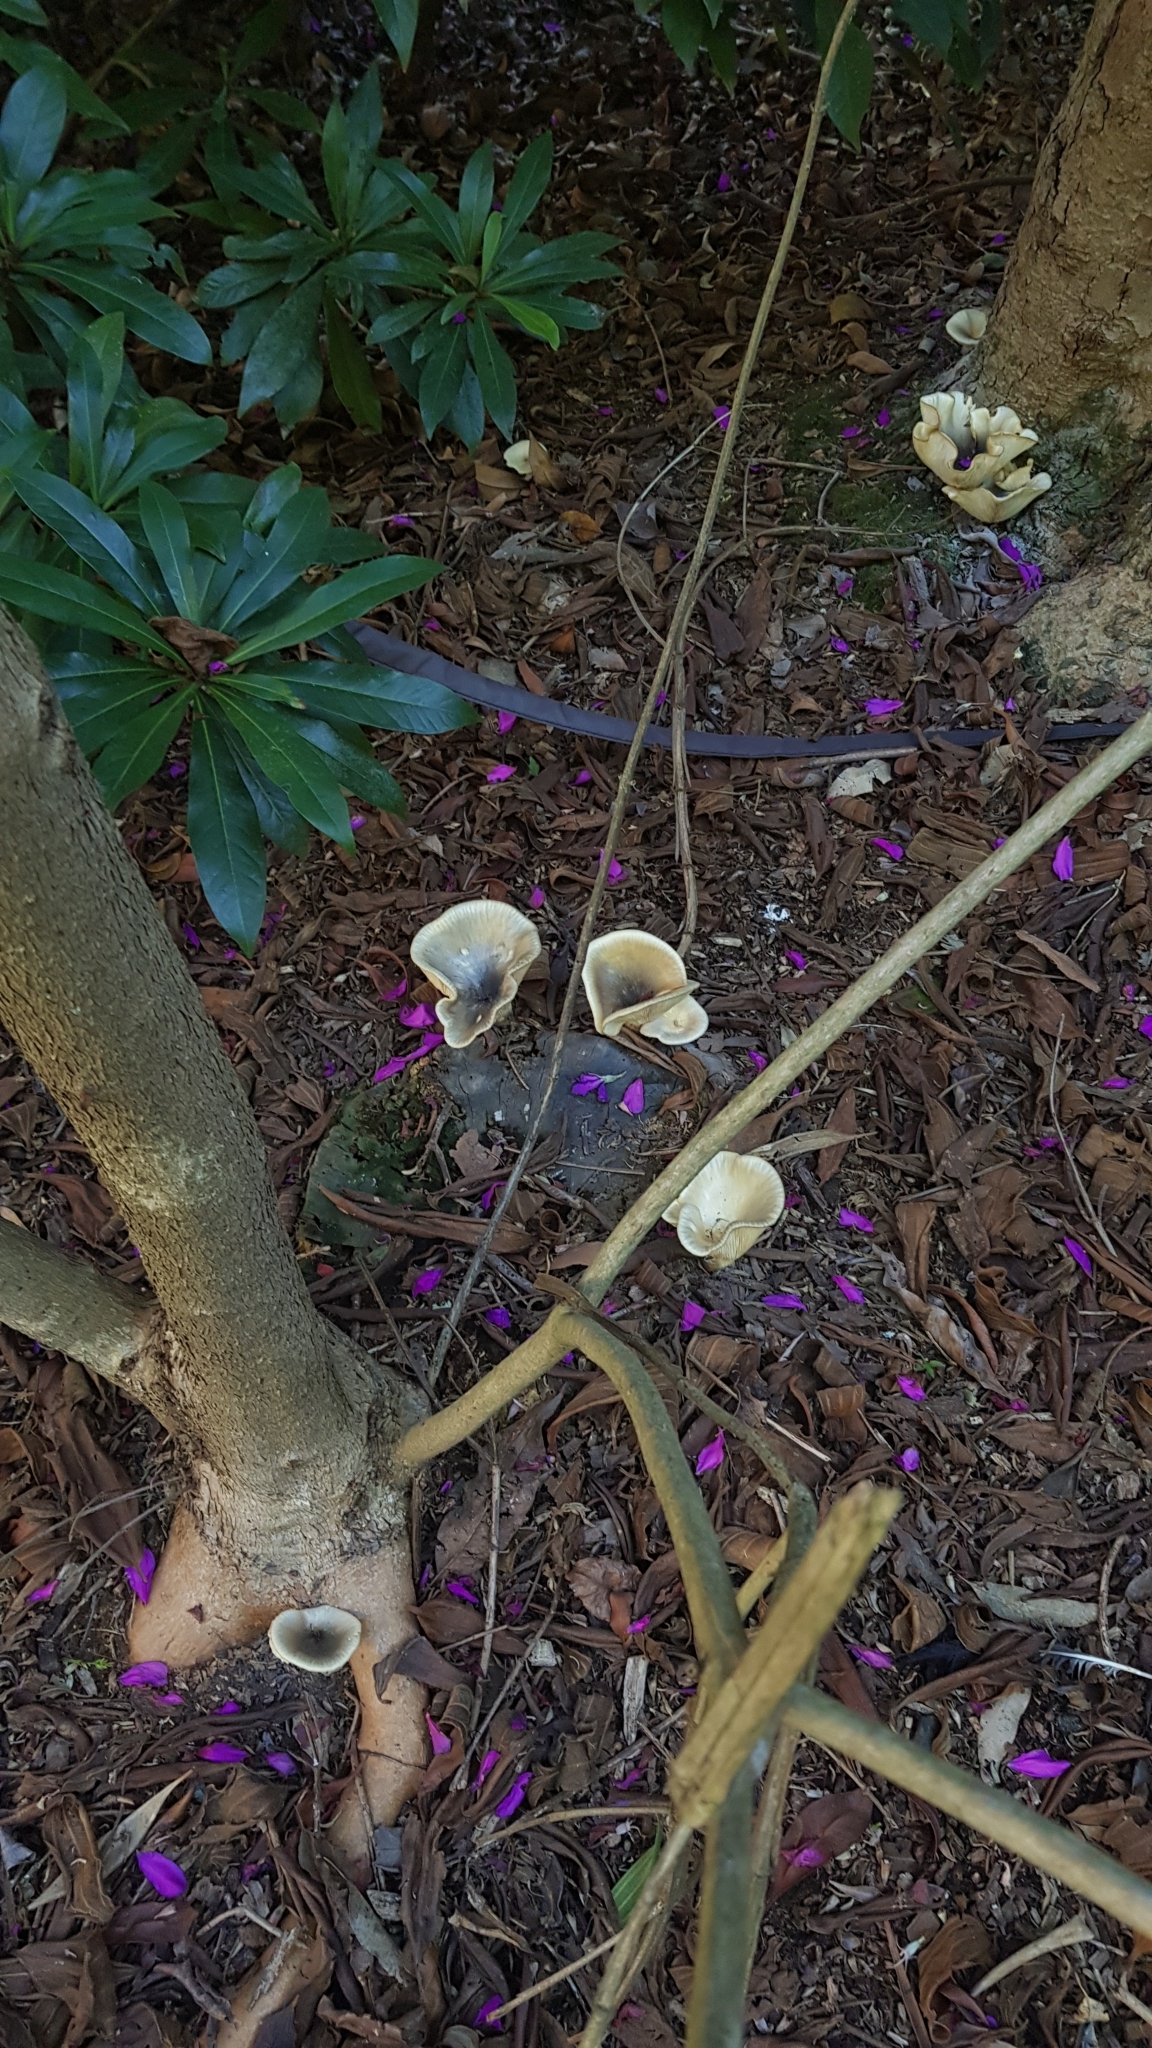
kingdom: Fungi
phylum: Basidiomycota
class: Agaricomycetes
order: Agaricales
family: Omphalotaceae
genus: Omphalotus
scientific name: Omphalotus nidiformis
